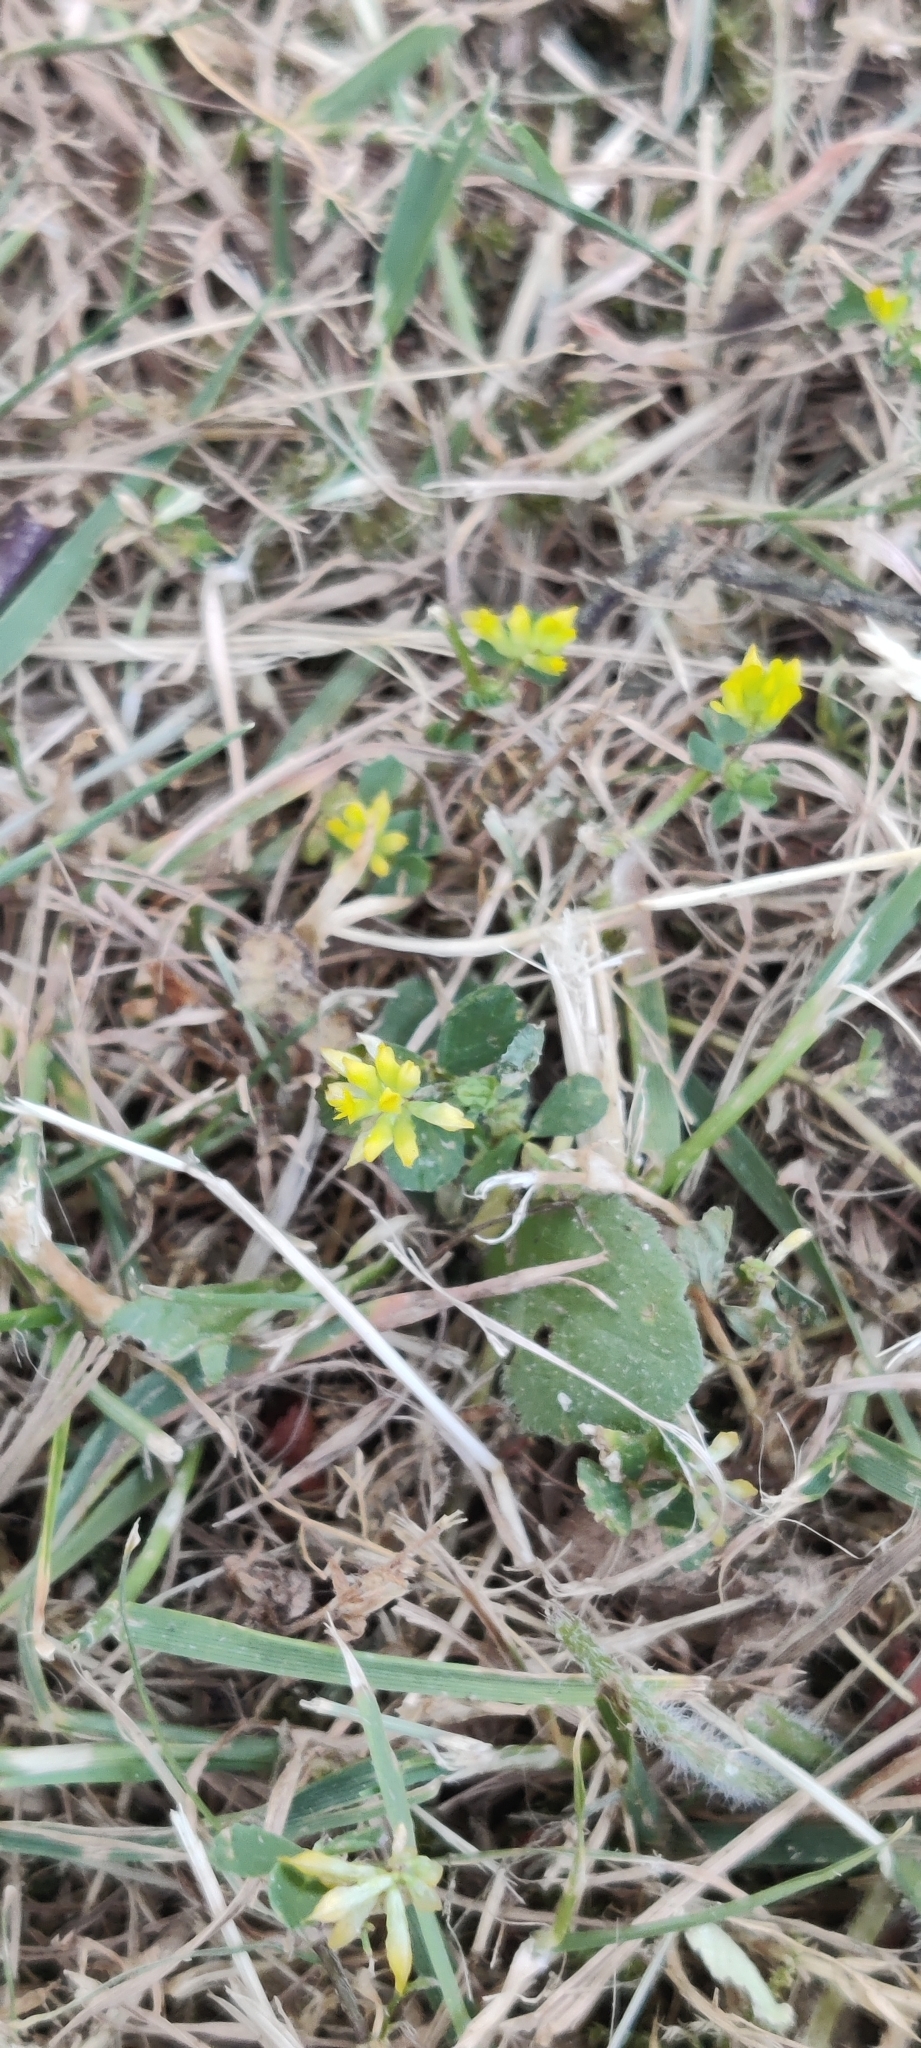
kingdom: Plantae
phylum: Tracheophyta
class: Magnoliopsida
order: Fabales
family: Fabaceae
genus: Trifolium
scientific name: Trifolium dubium
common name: Suckling clover
